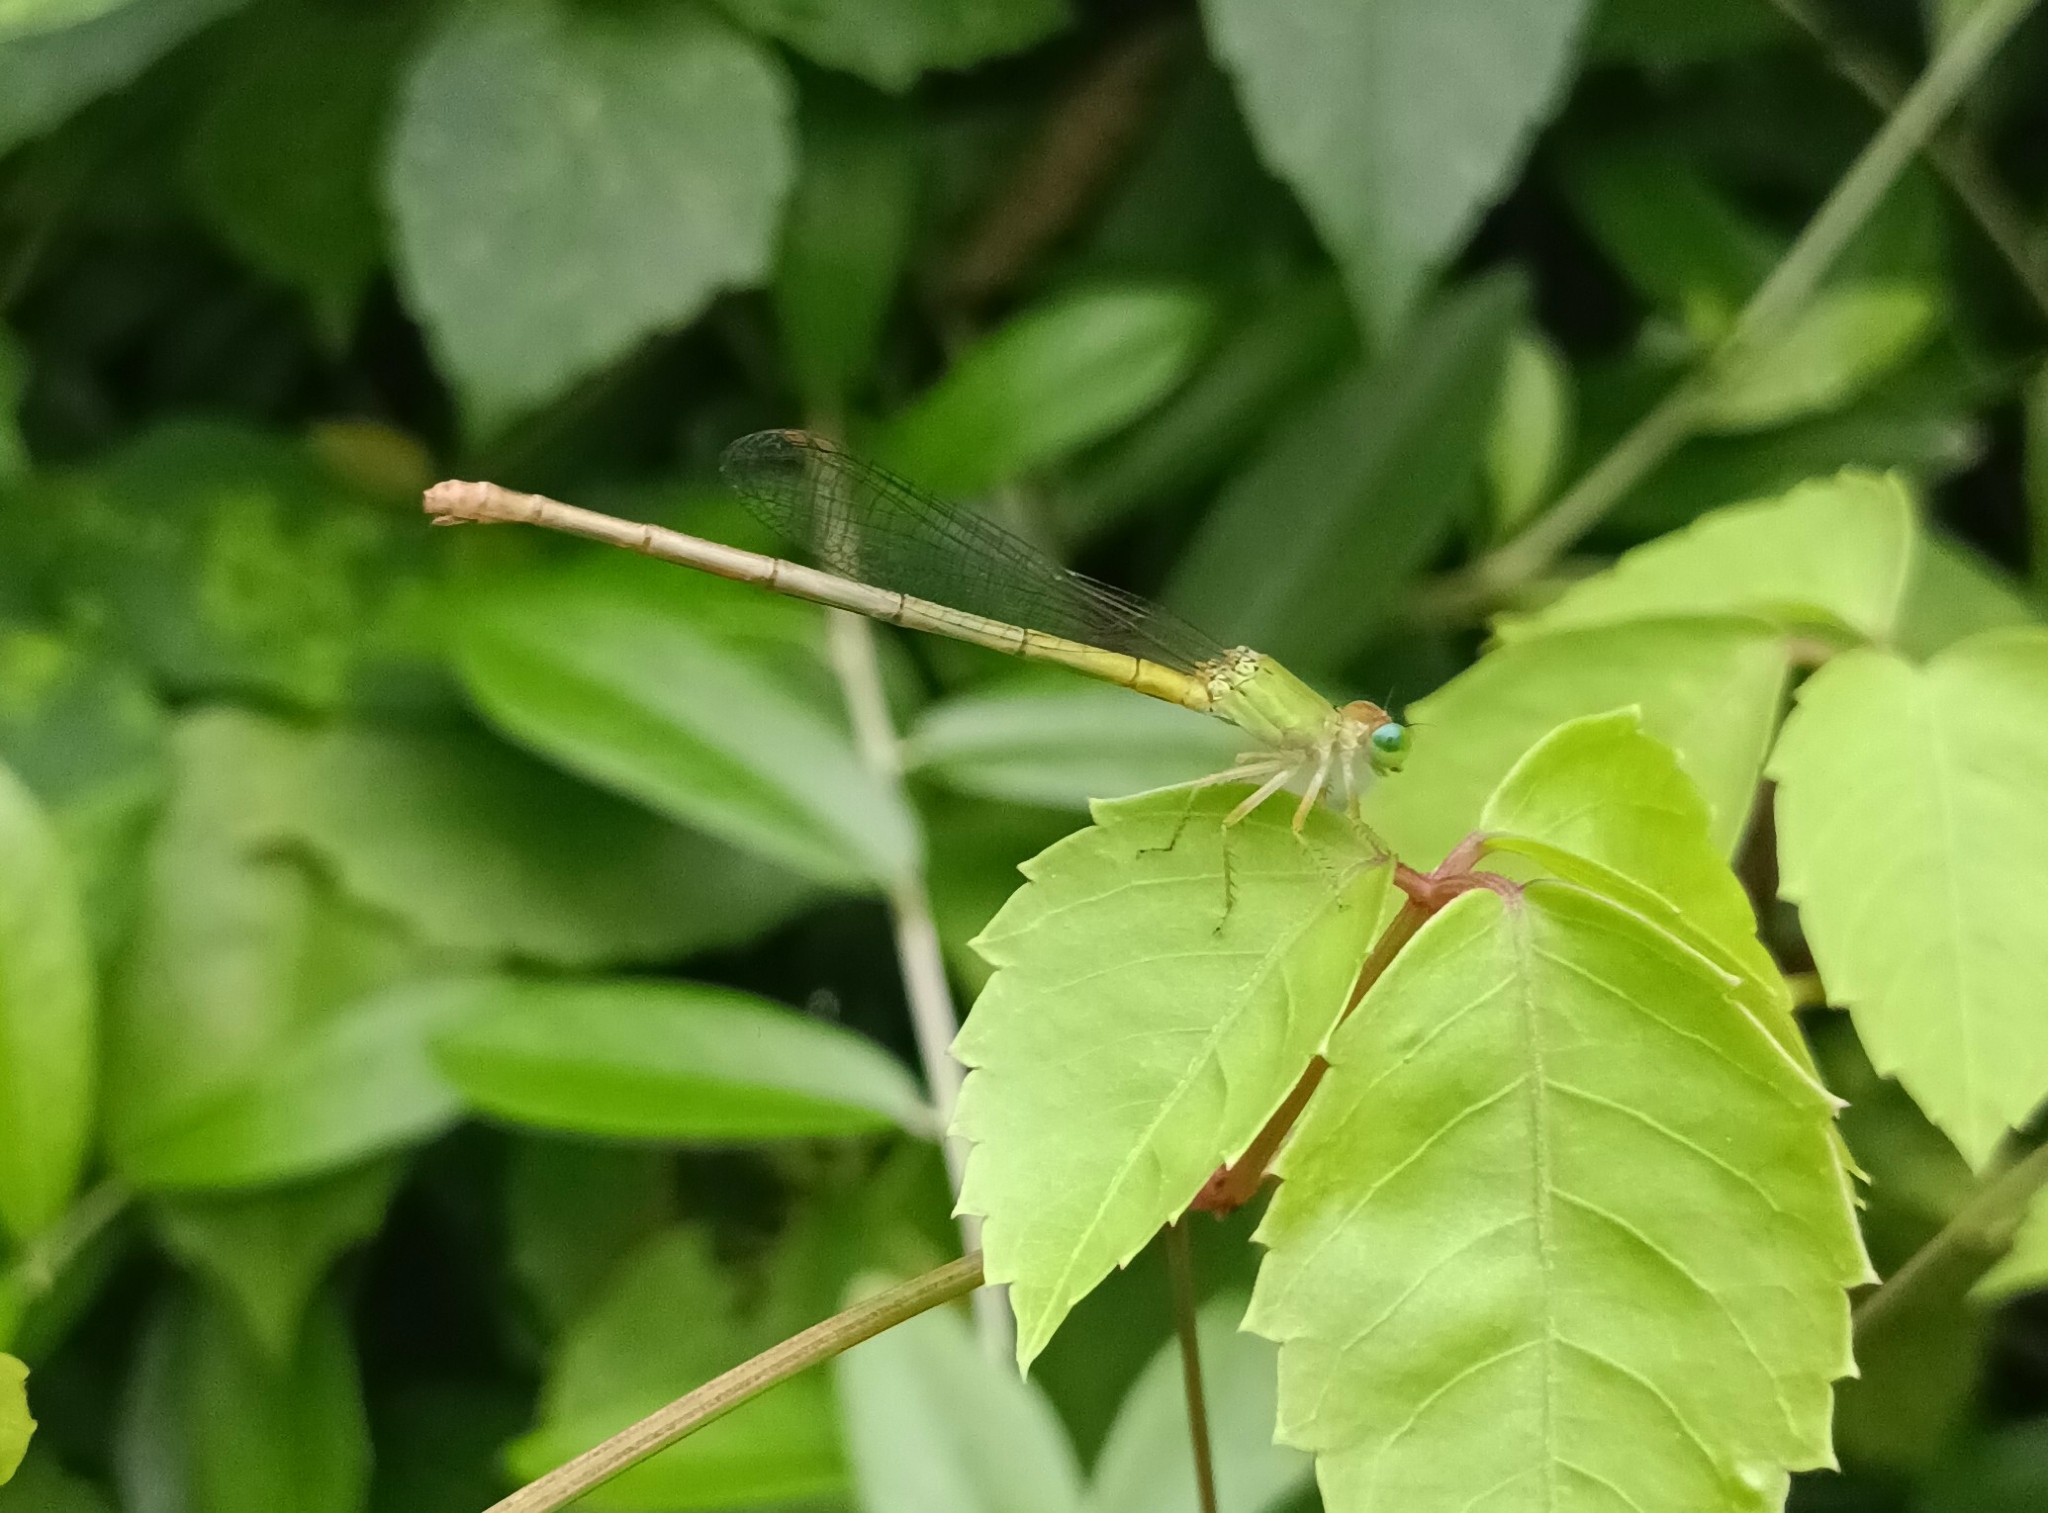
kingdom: Animalia
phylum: Arthropoda
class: Insecta
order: Odonata
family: Coenagrionidae
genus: Ceriagrion
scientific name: Ceriagrion coromandelianum
